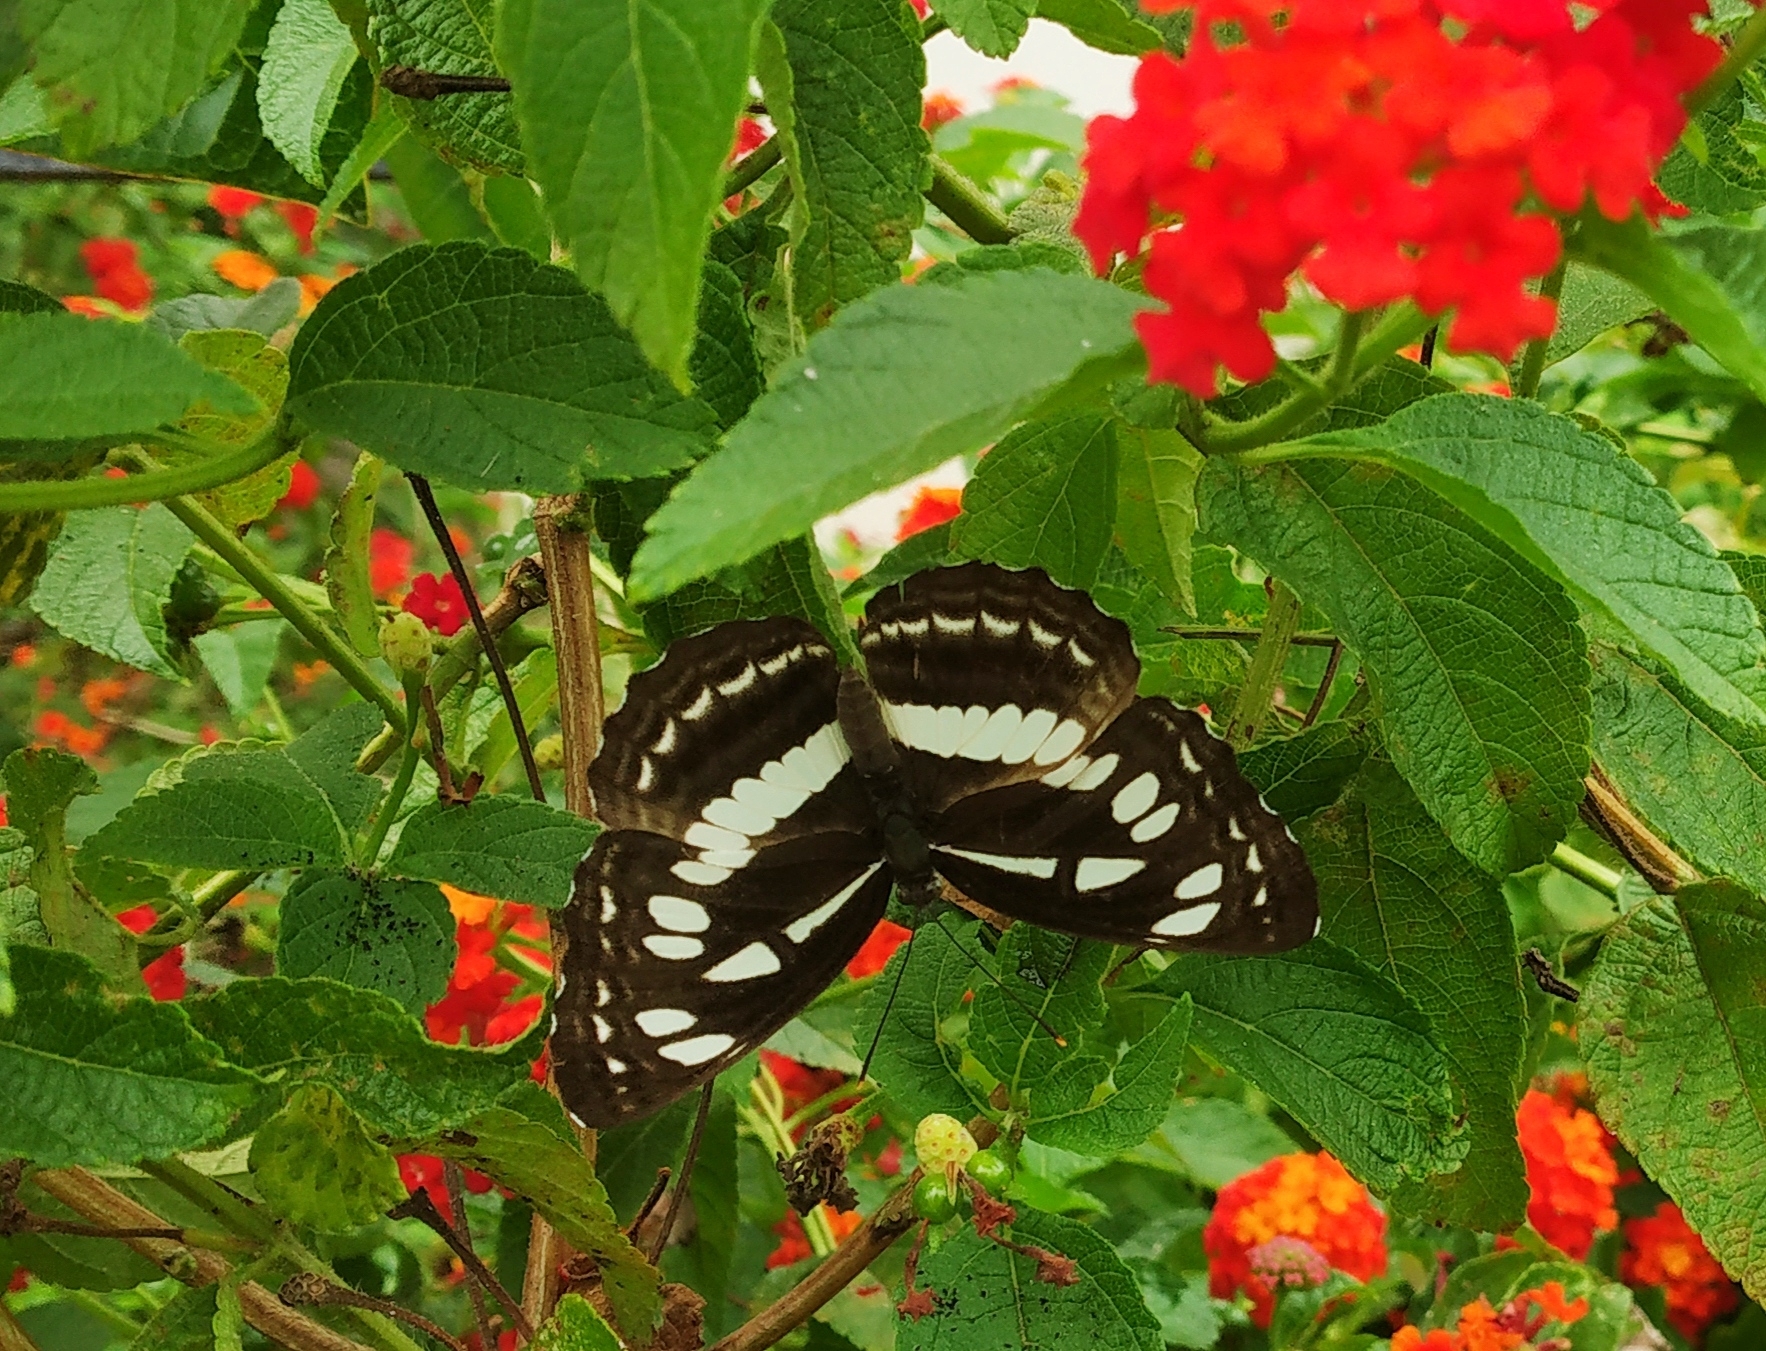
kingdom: Animalia
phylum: Arthropoda
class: Insecta
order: Lepidoptera
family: Nymphalidae
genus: Neptis
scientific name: Neptis jumbah
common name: Chestnut-streaked sailer
